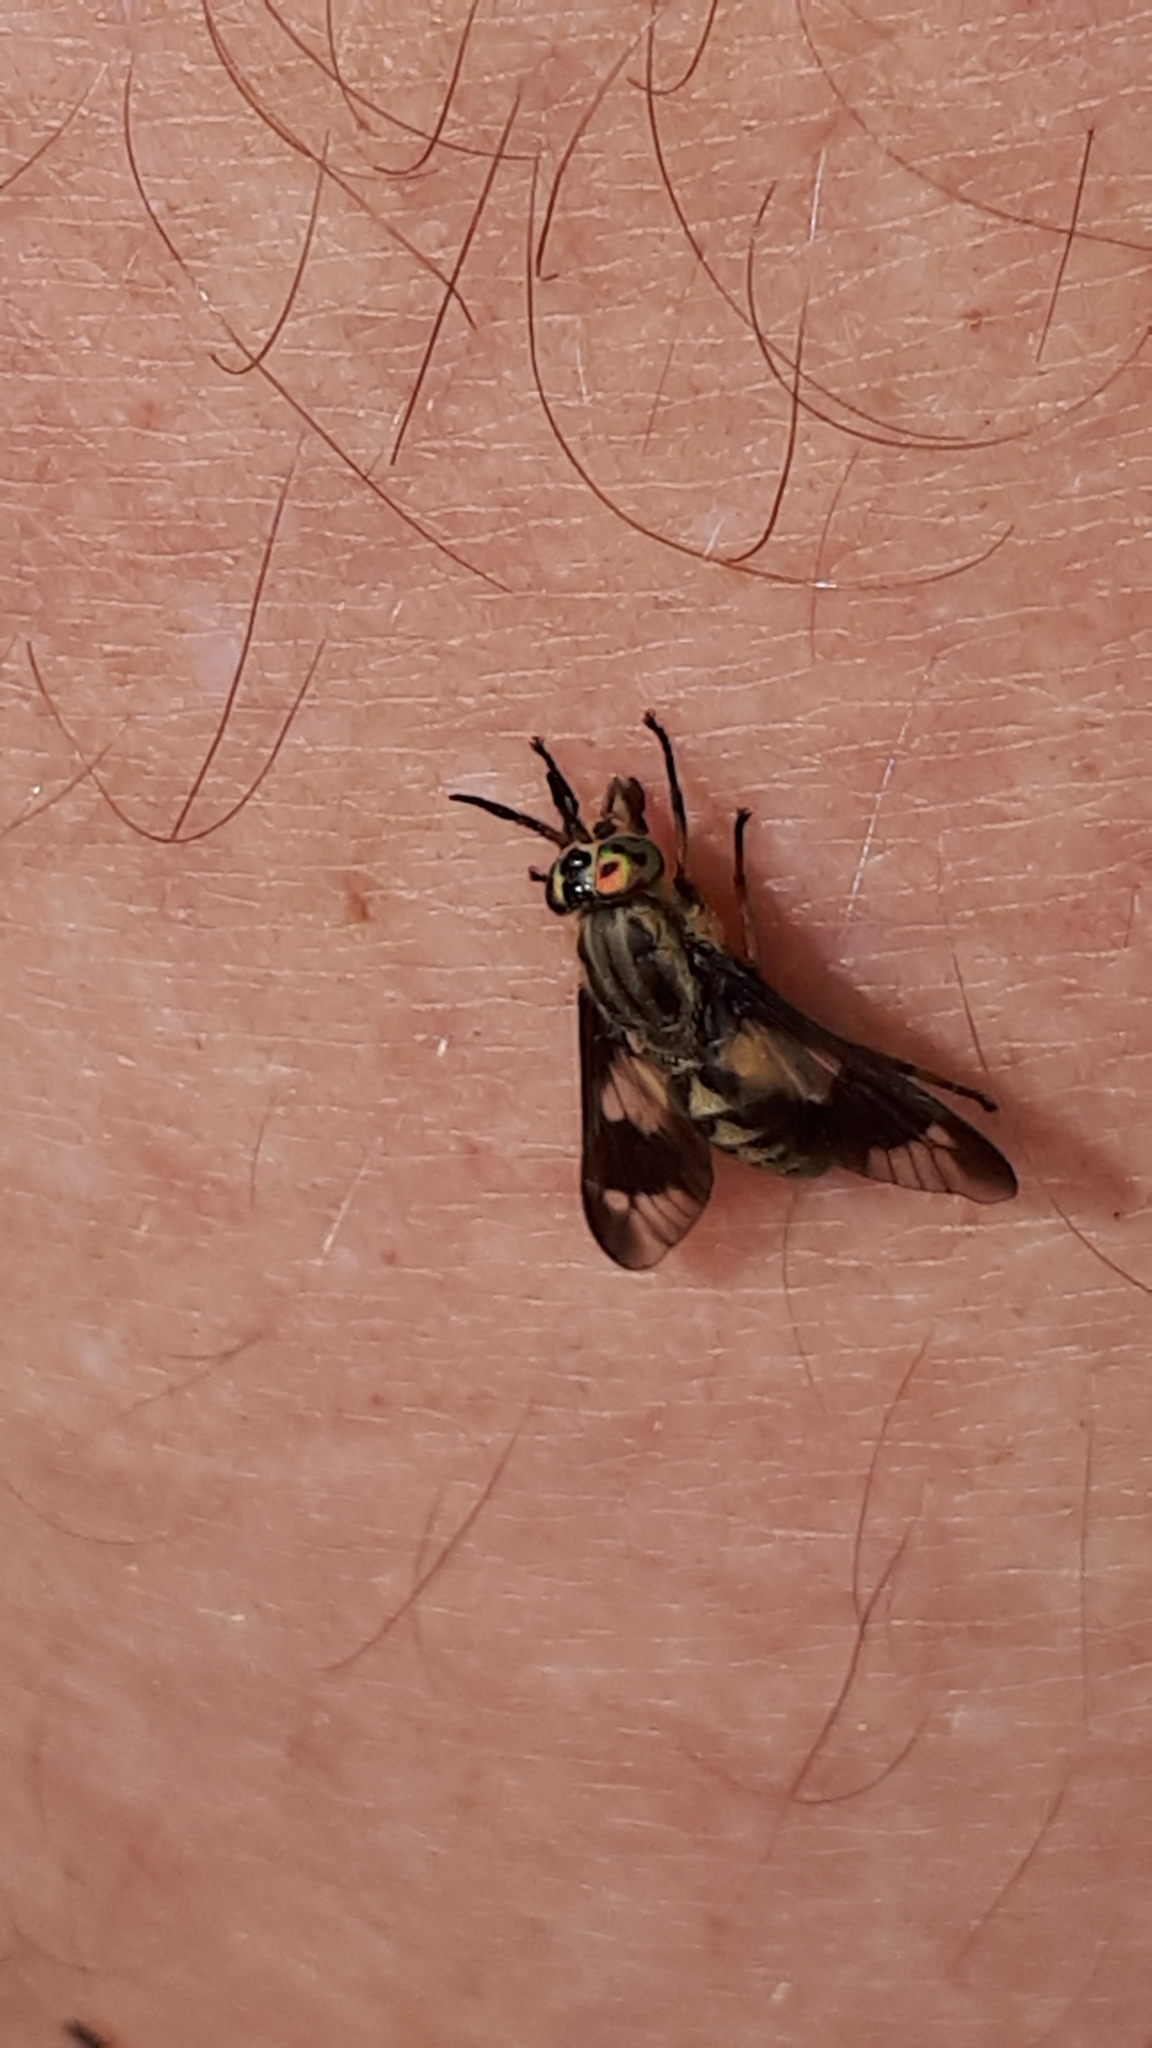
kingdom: Animalia
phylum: Arthropoda
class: Insecta
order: Diptera
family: Tabanidae
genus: Chrysops
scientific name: Chrysops relictus
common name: Twin-lobed deerfly
